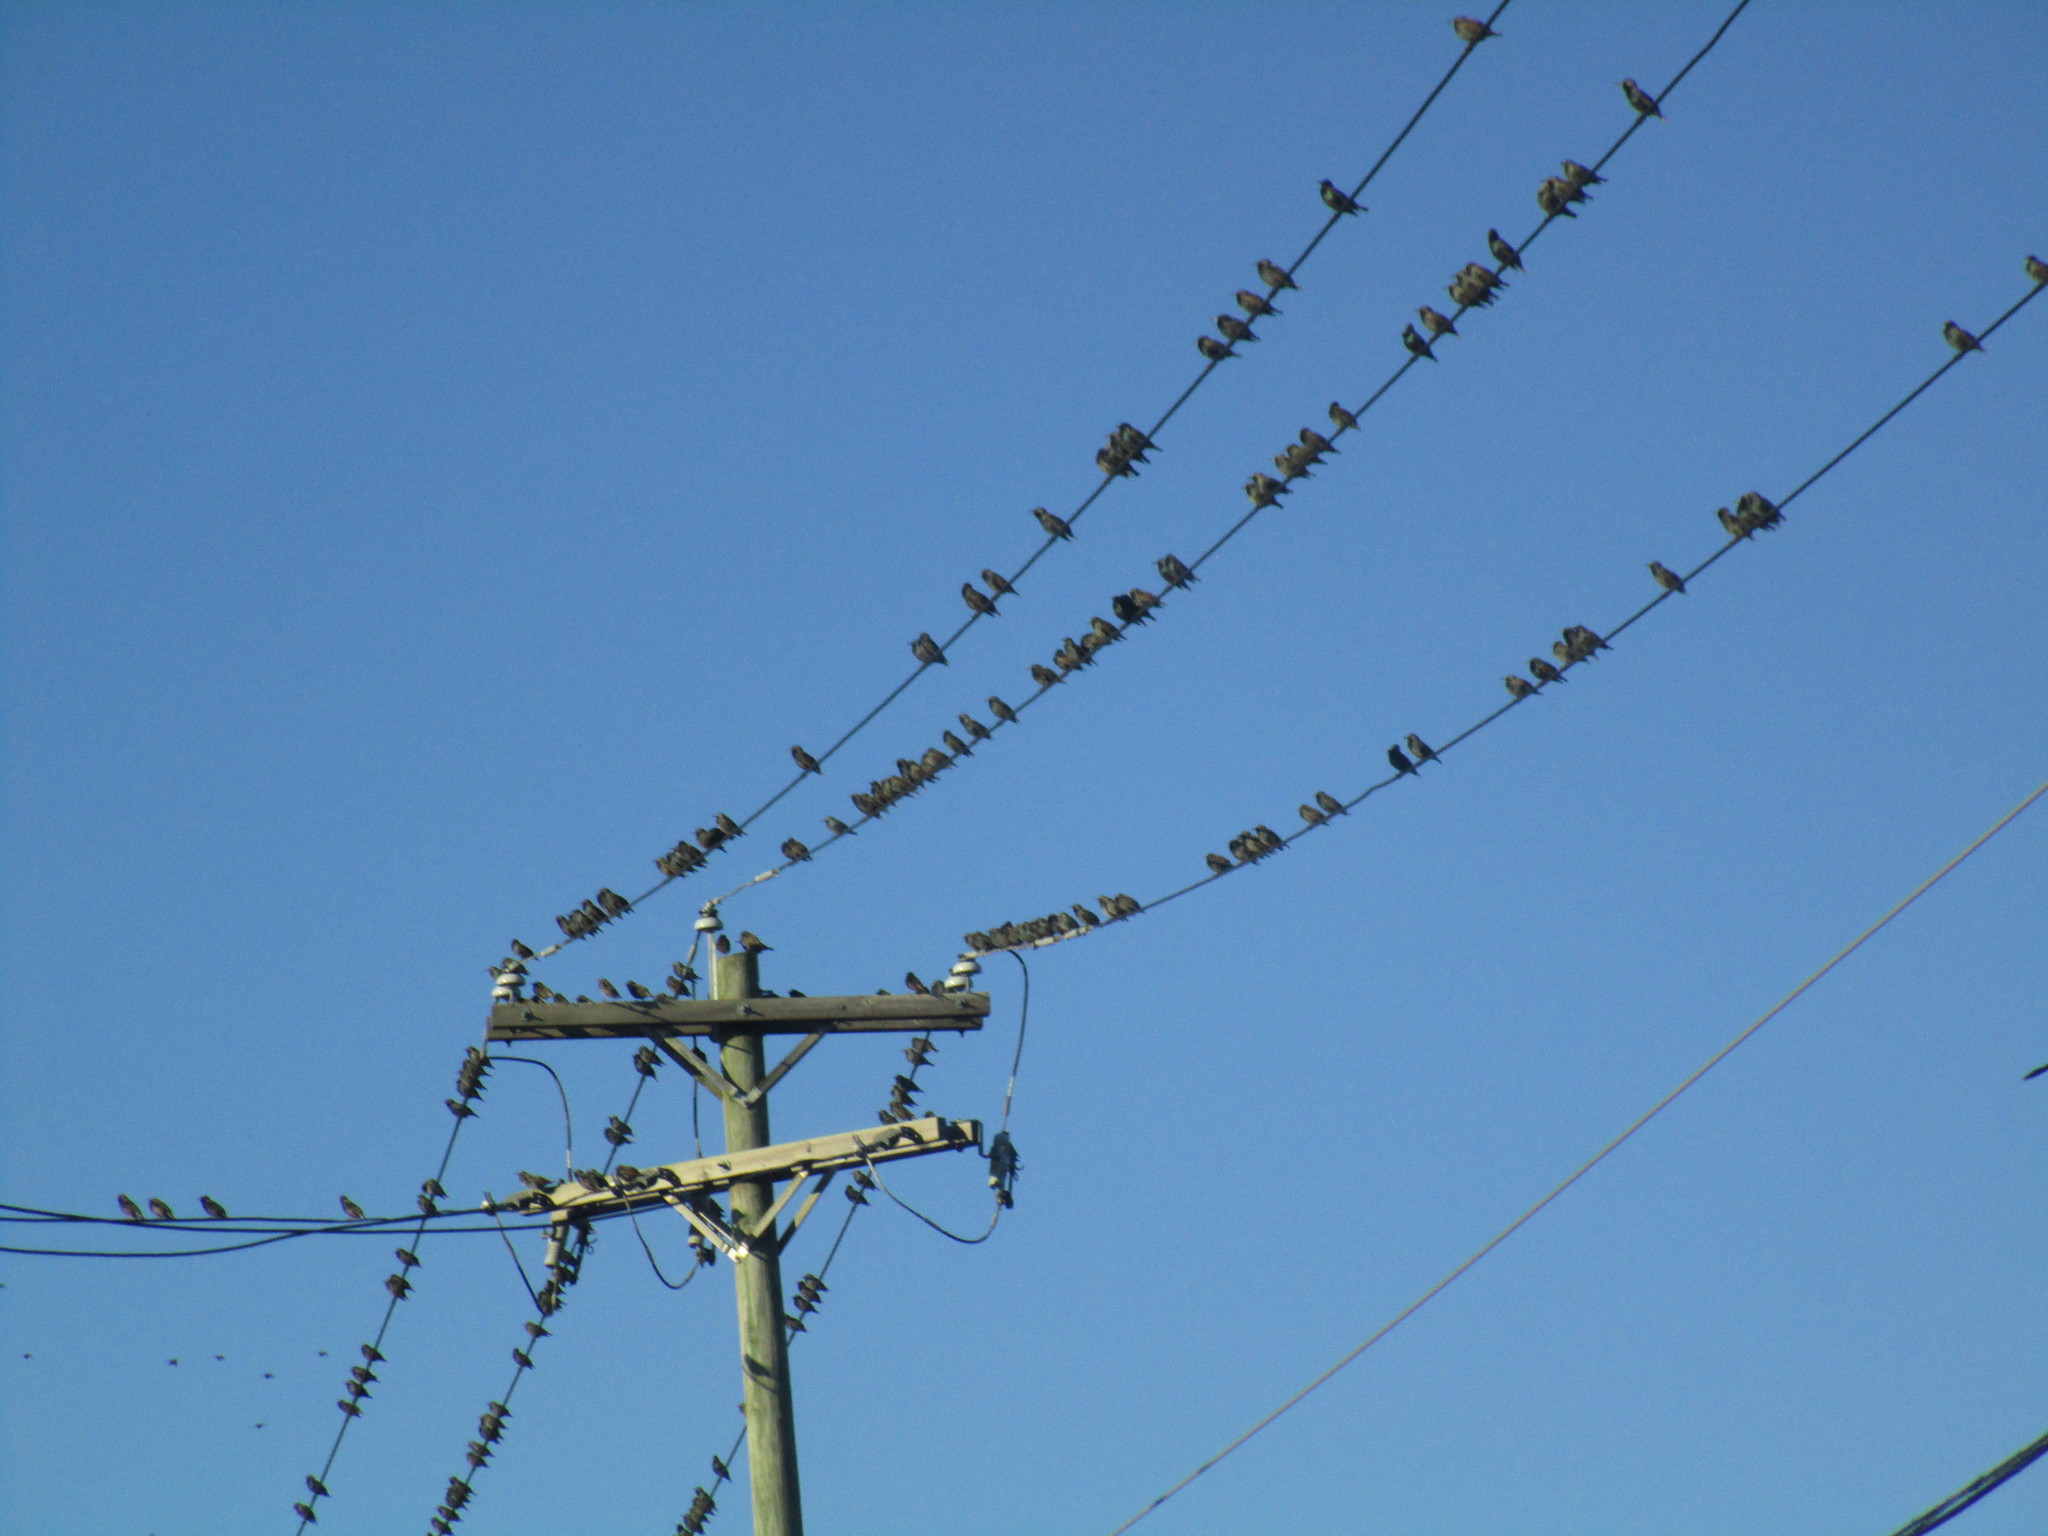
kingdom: Animalia
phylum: Chordata
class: Aves
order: Passeriformes
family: Sturnidae
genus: Sturnus
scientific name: Sturnus vulgaris
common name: Common starling
